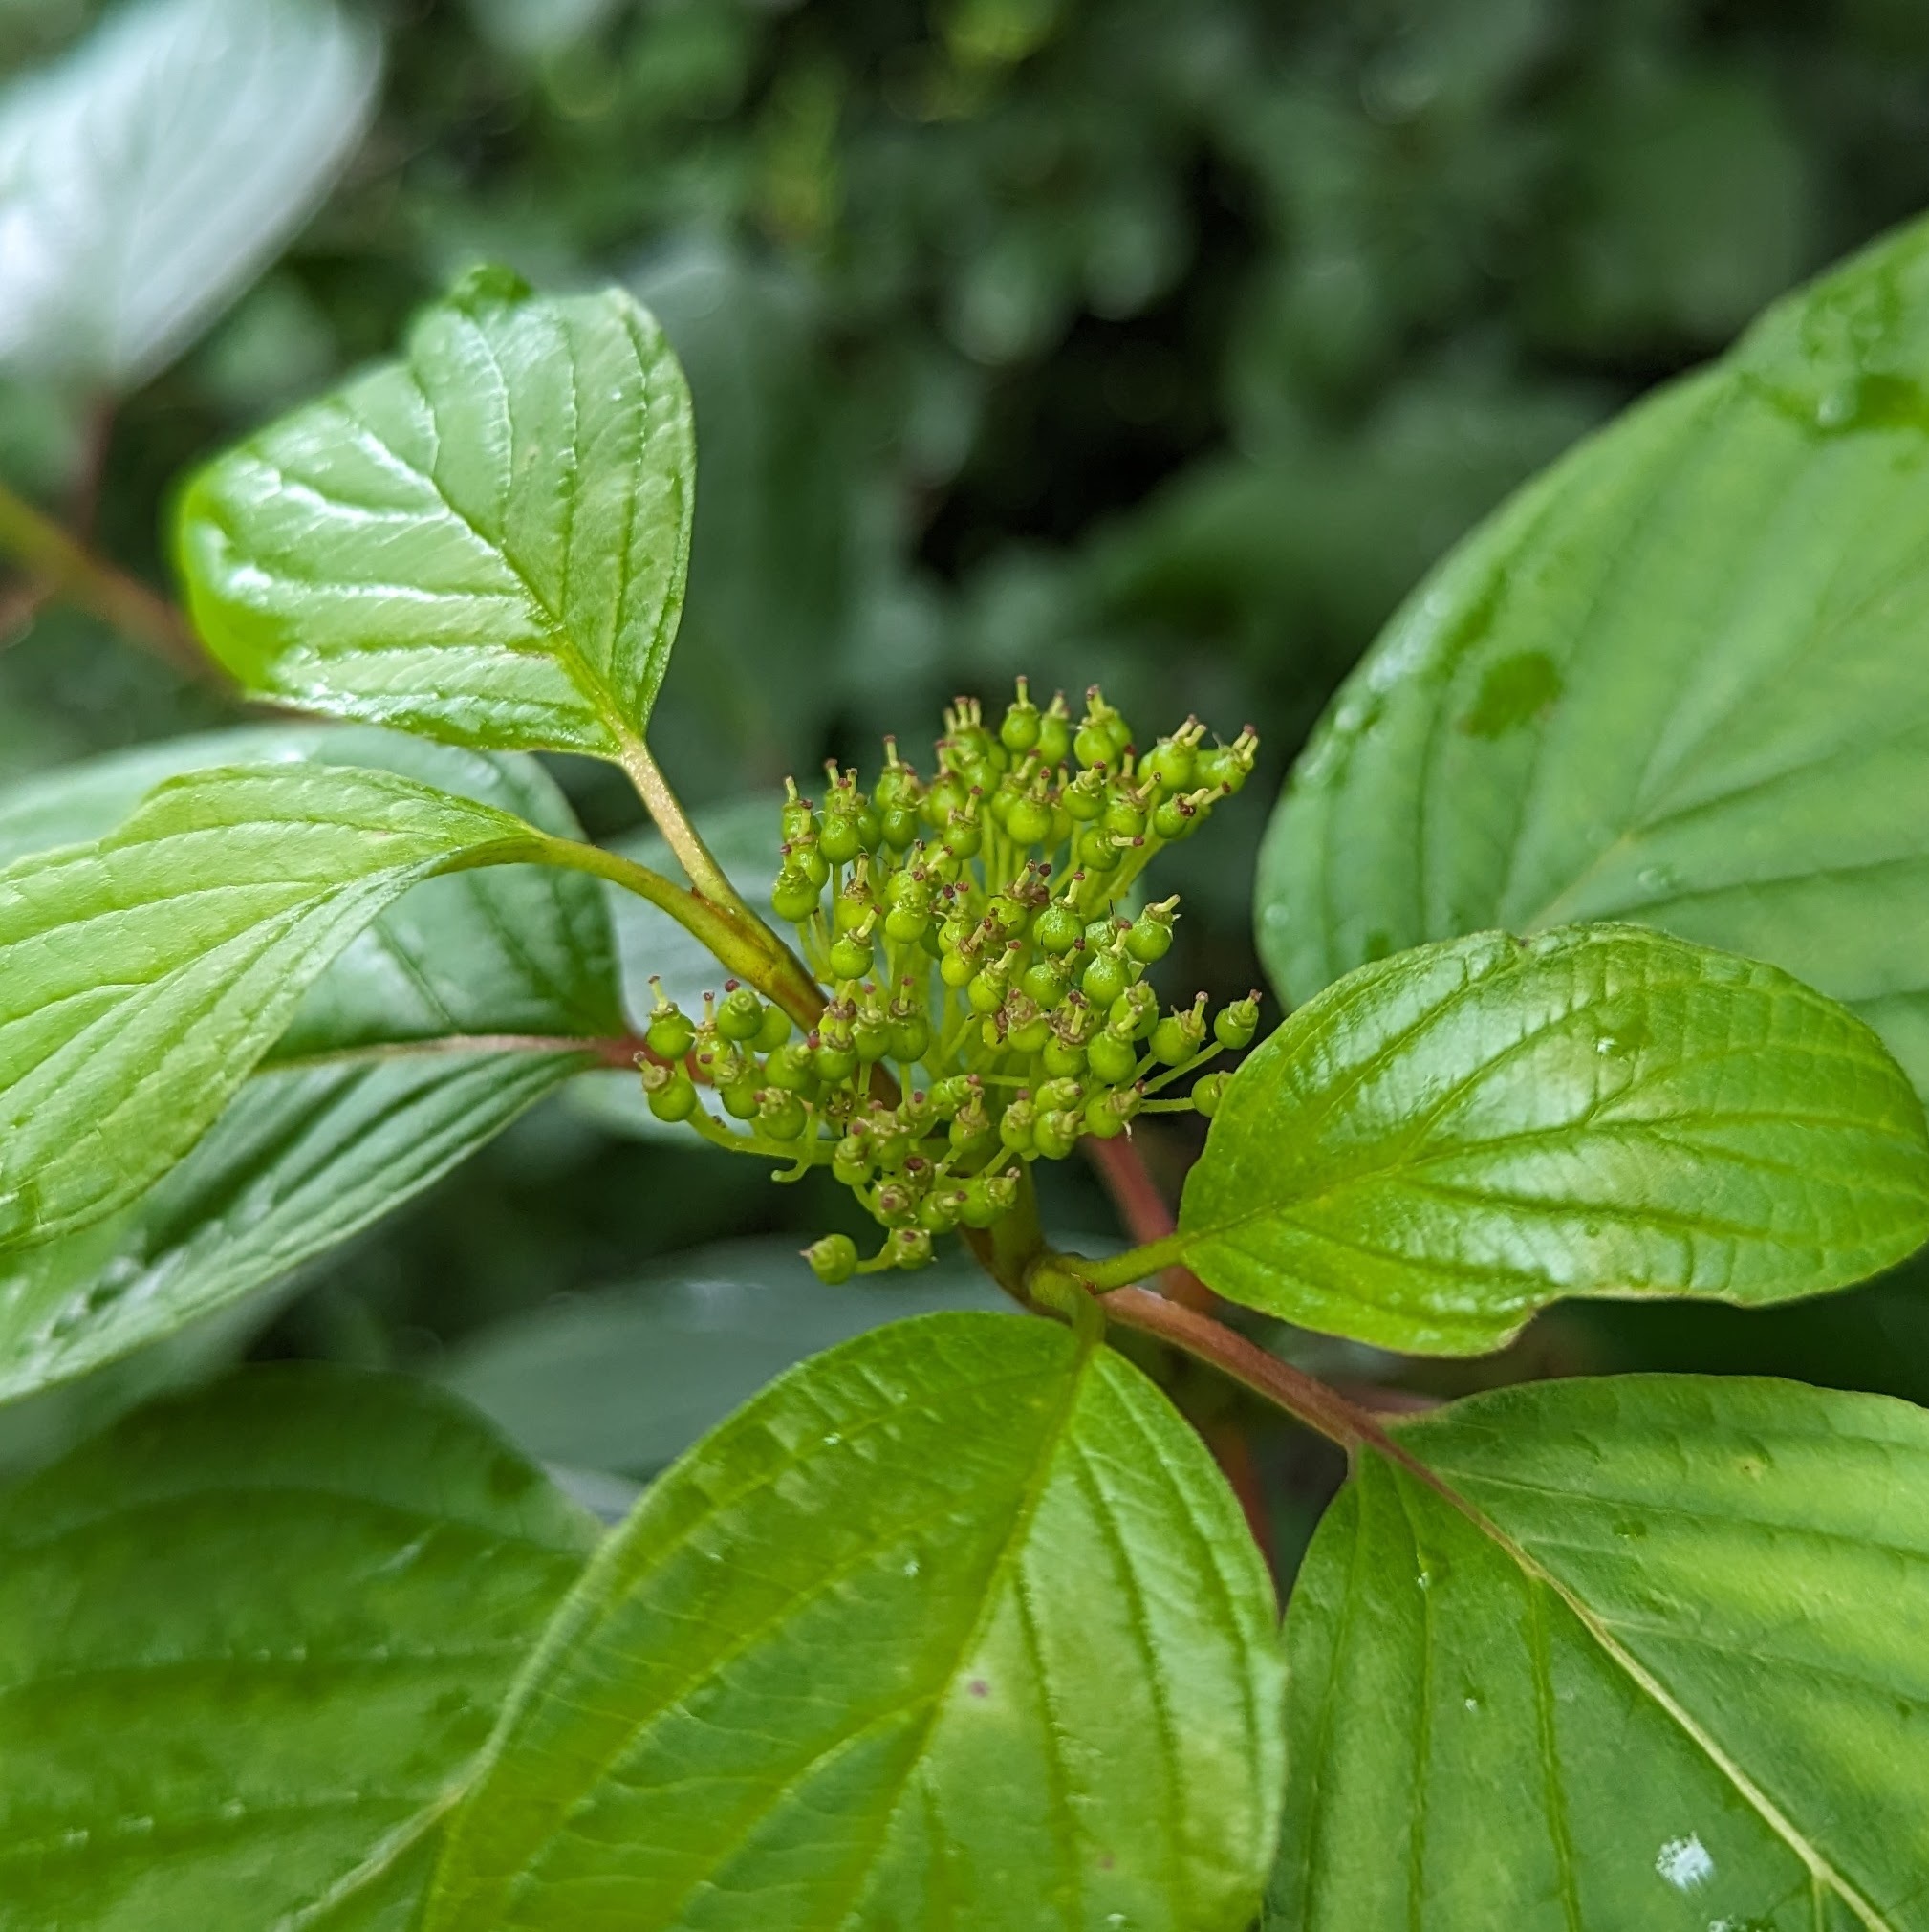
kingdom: Plantae
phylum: Tracheophyta
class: Magnoliopsida
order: Cornales
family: Cornaceae
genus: Cornus
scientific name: Cornus sericea
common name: Red-osier dogwood
